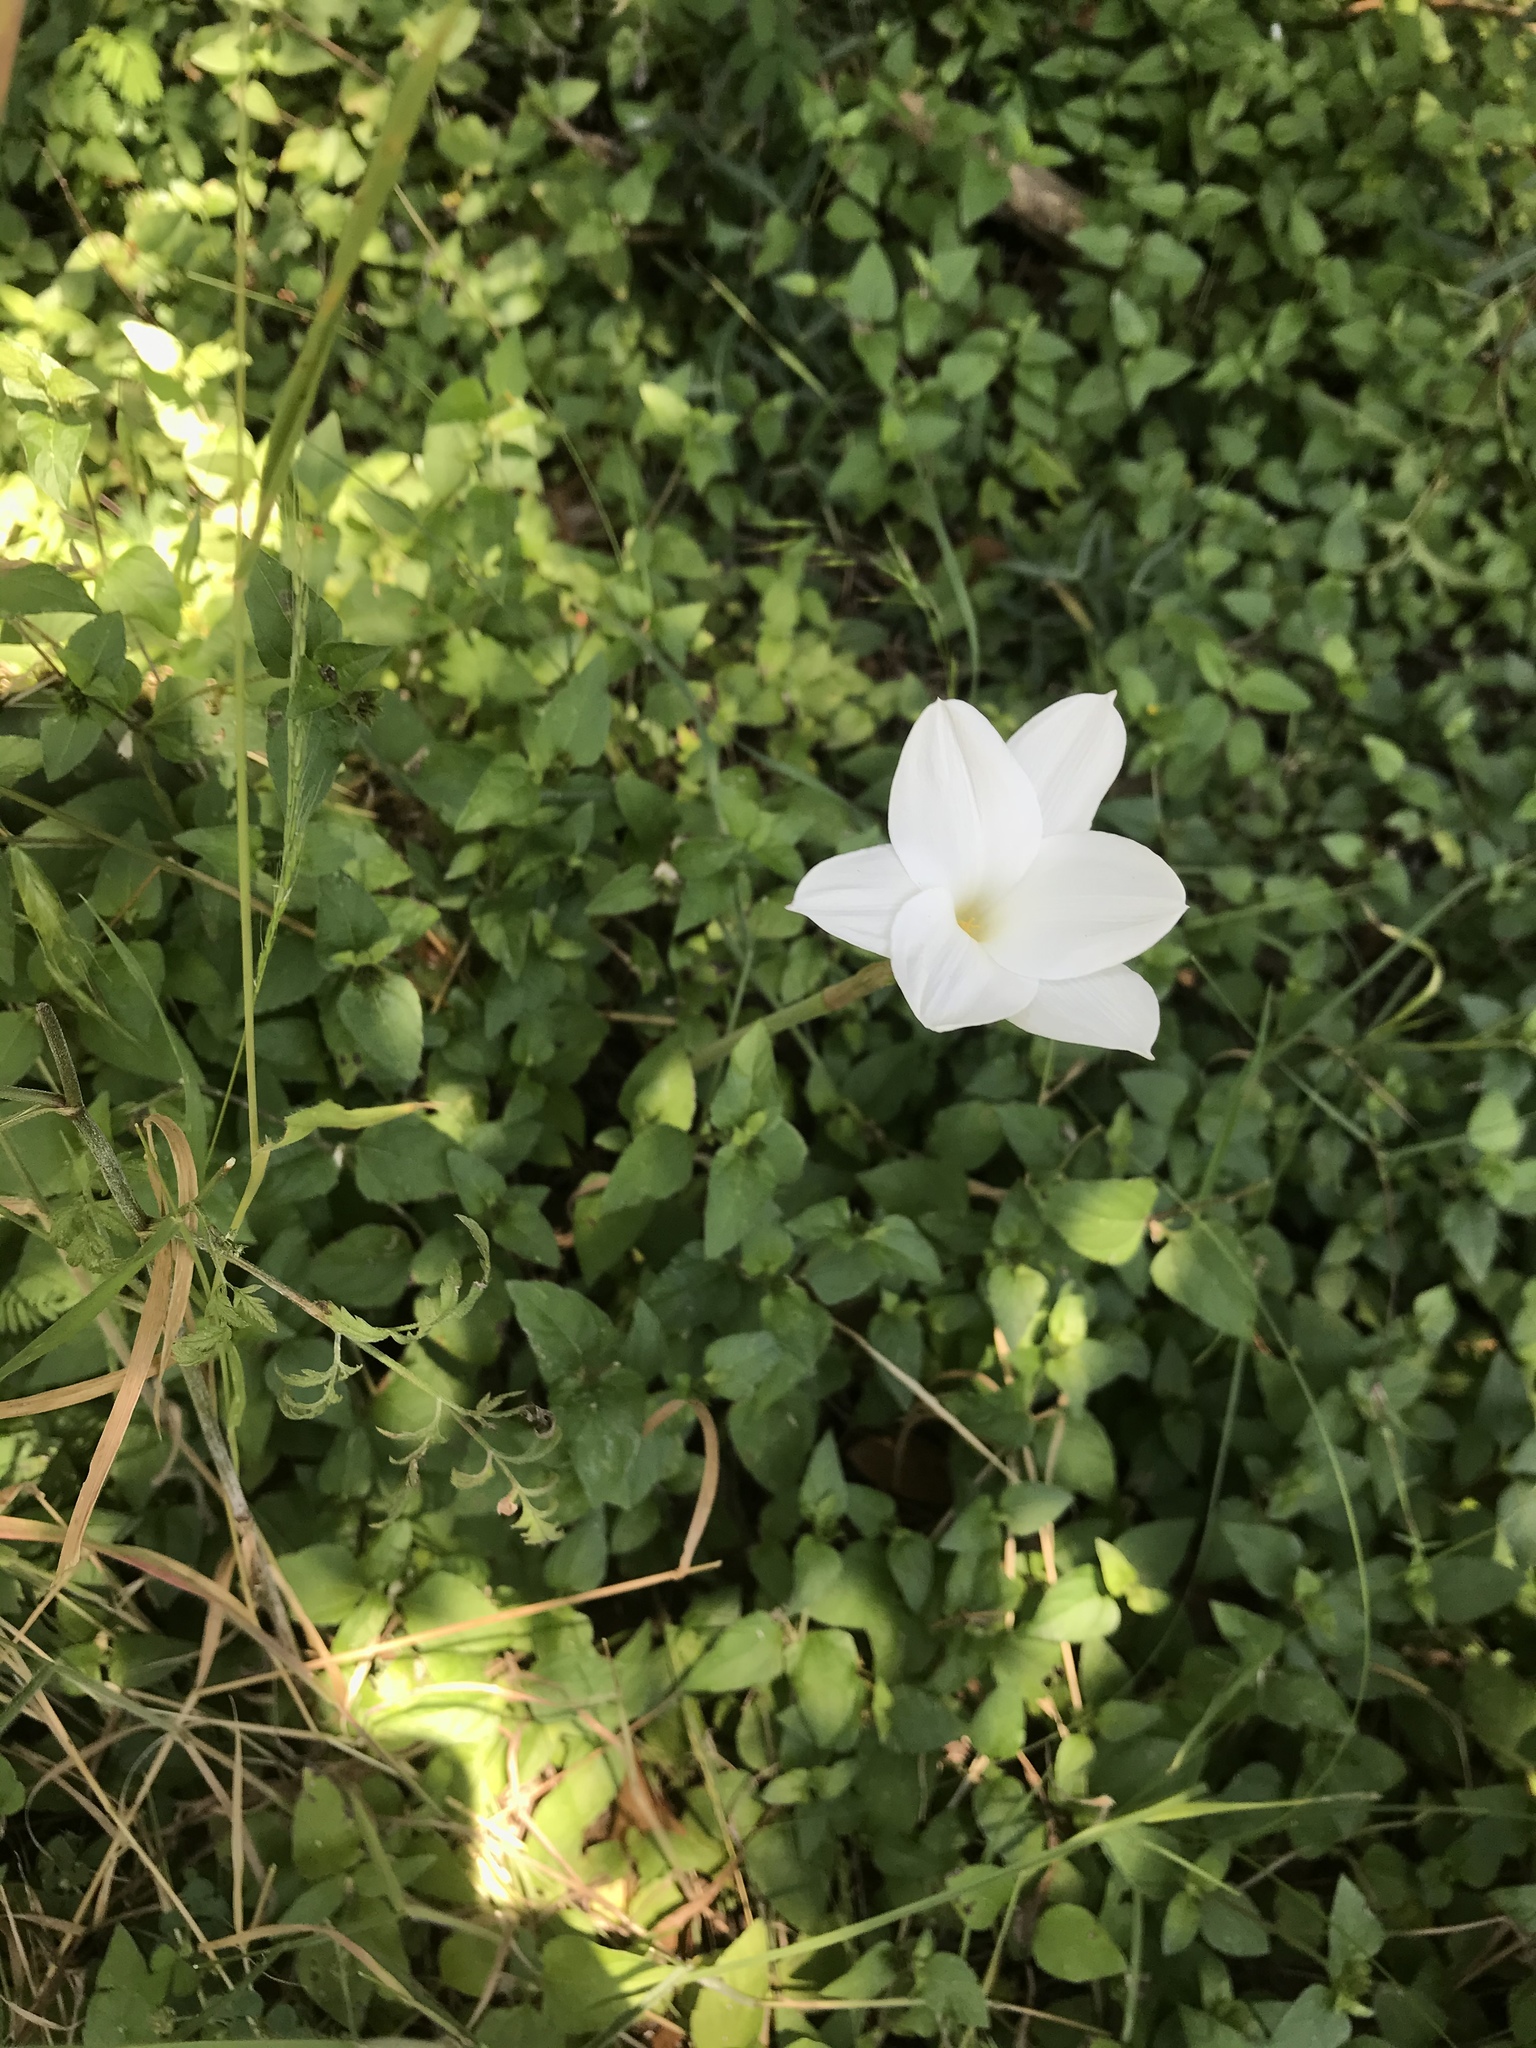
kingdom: Plantae
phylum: Tracheophyta
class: Liliopsida
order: Asparagales
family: Amaryllidaceae
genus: Zephyranthes
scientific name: Zephyranthes drummondii
